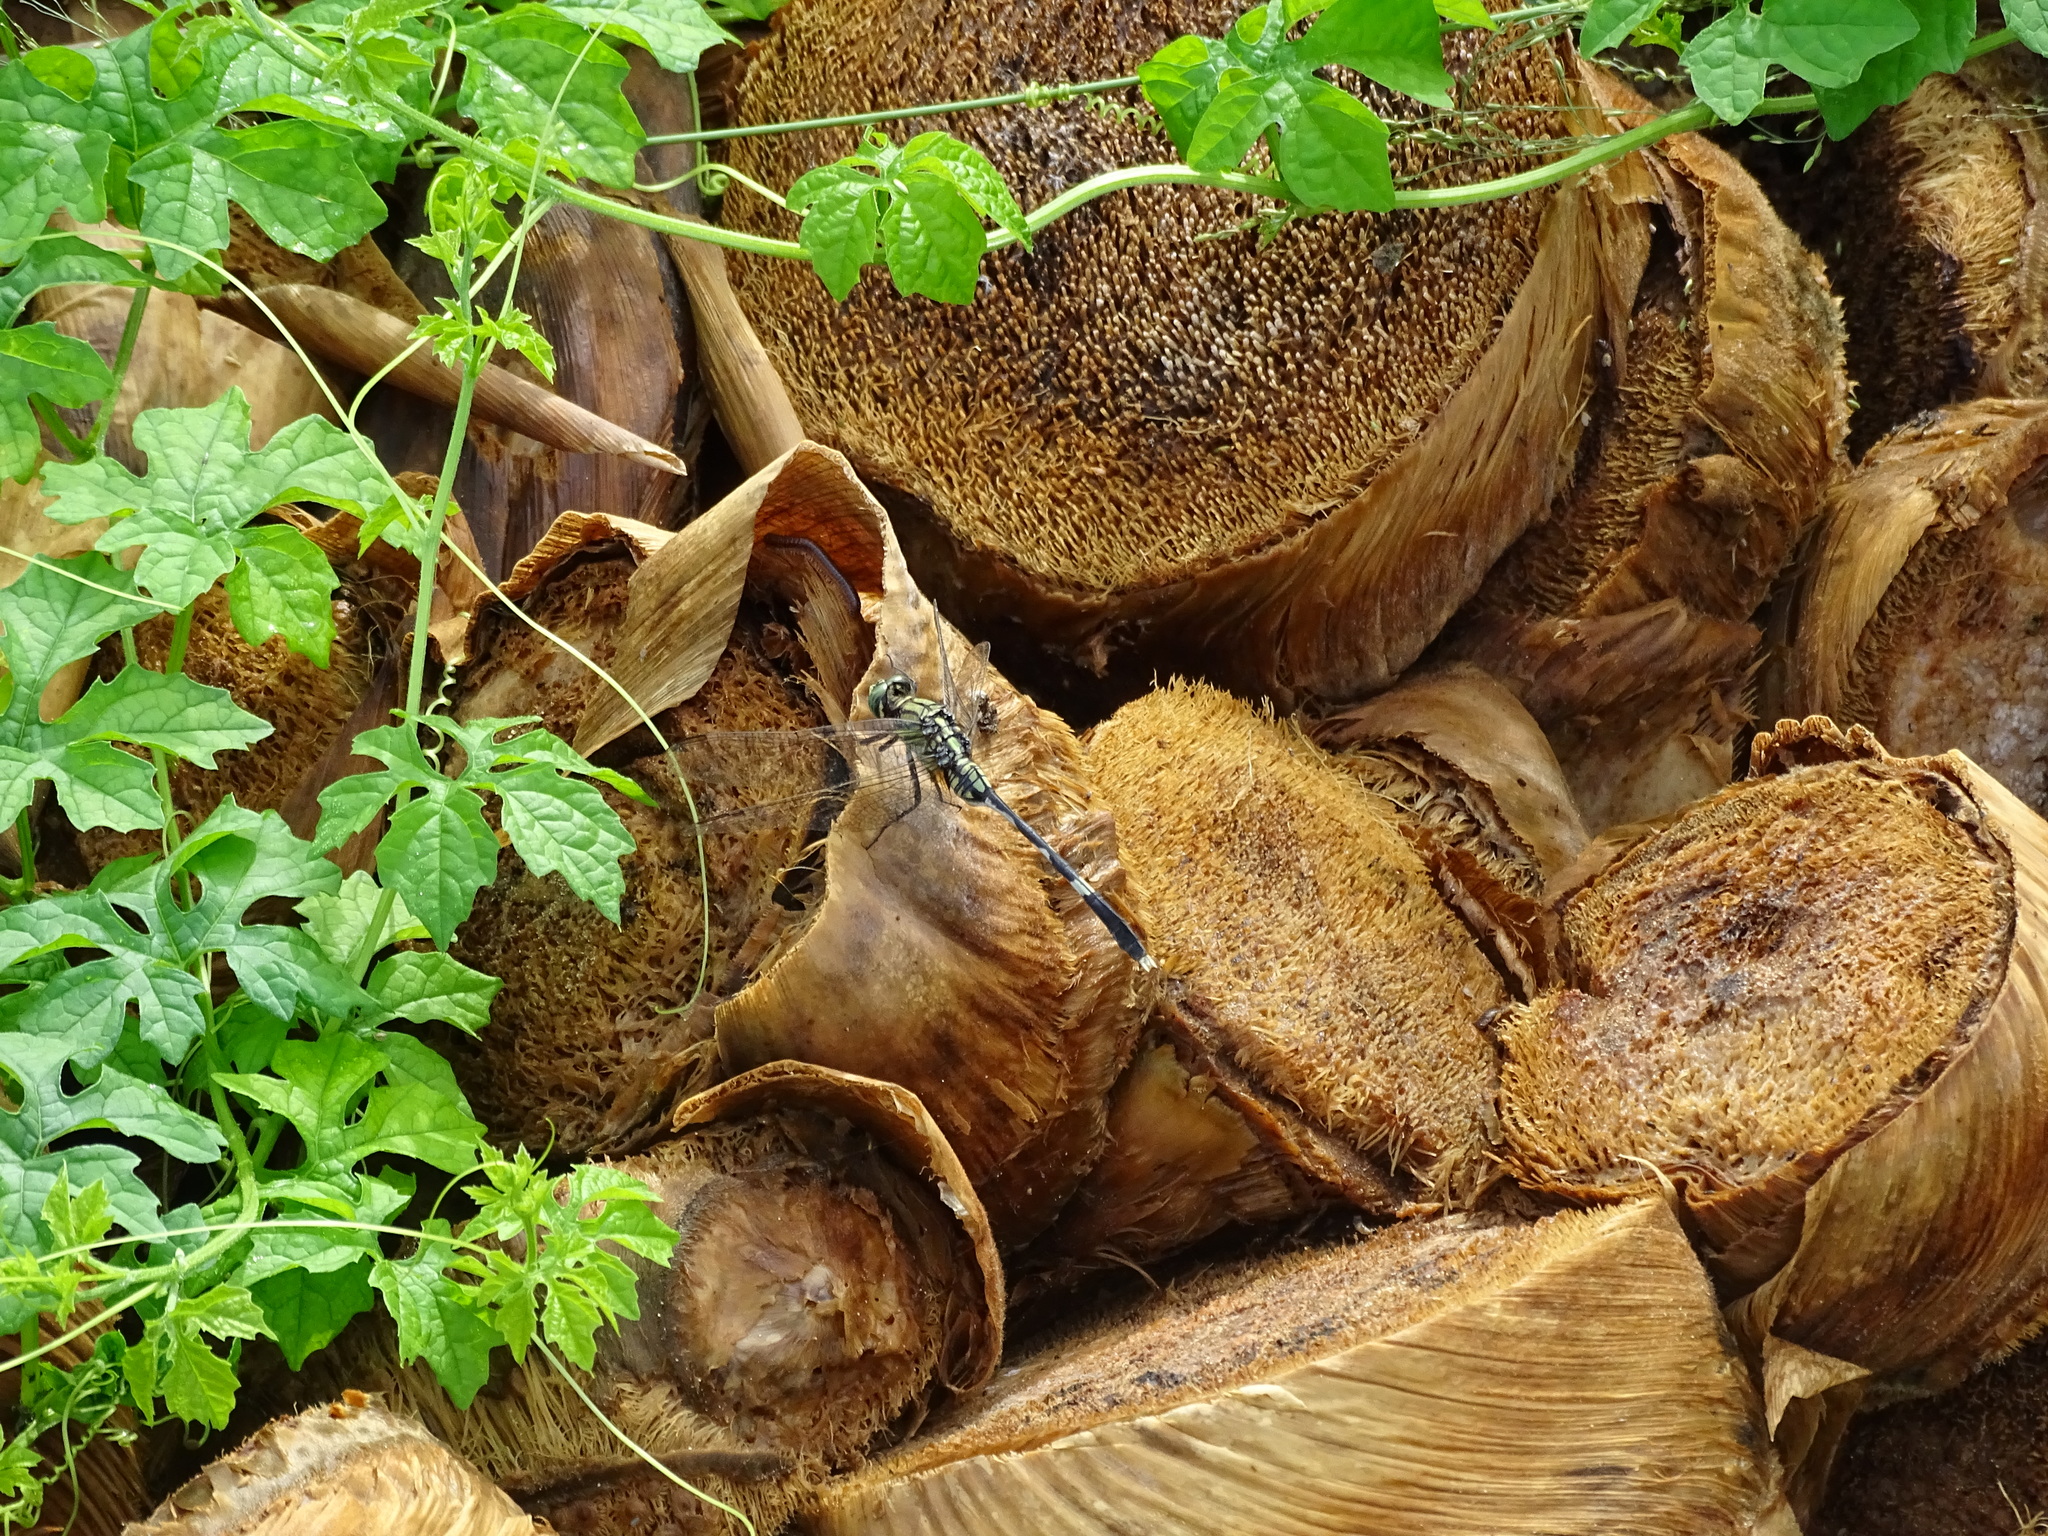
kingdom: Animalia
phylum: Arthropoda
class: Insecta
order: Odonata
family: Libellulidae
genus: Orthetrum
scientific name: Orthetrum sabina
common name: Slender skimmer
